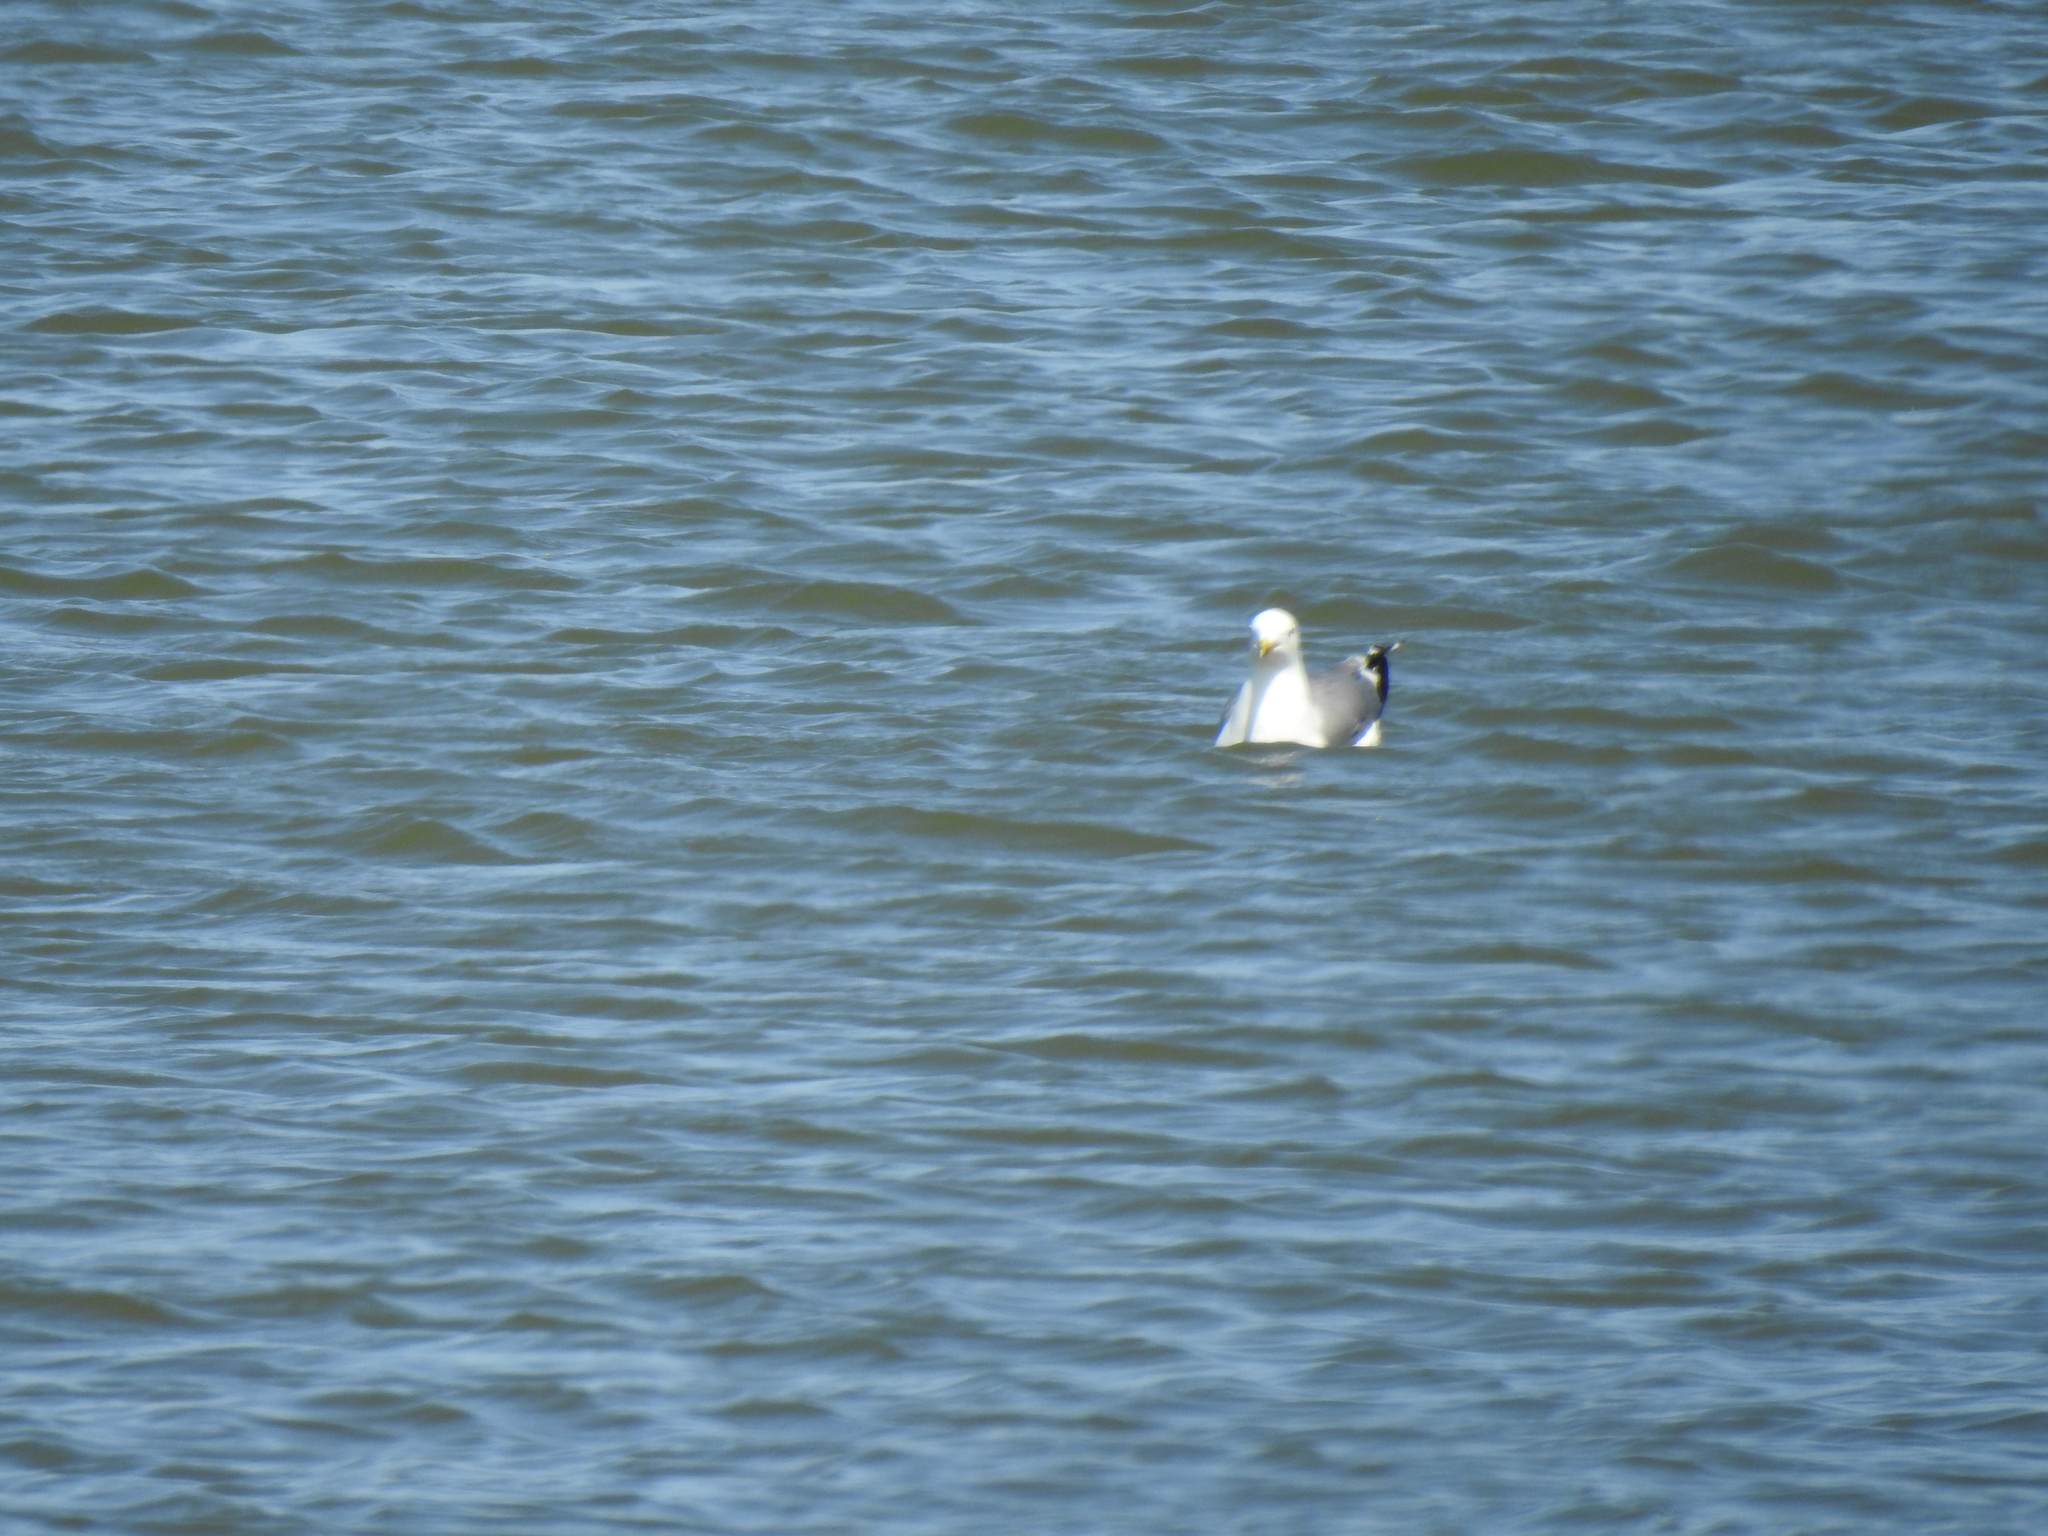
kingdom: Animalia
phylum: Chordata
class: Aves
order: Charadriiformes
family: Laridae
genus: Larus
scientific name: Larus californicus
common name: California gull
